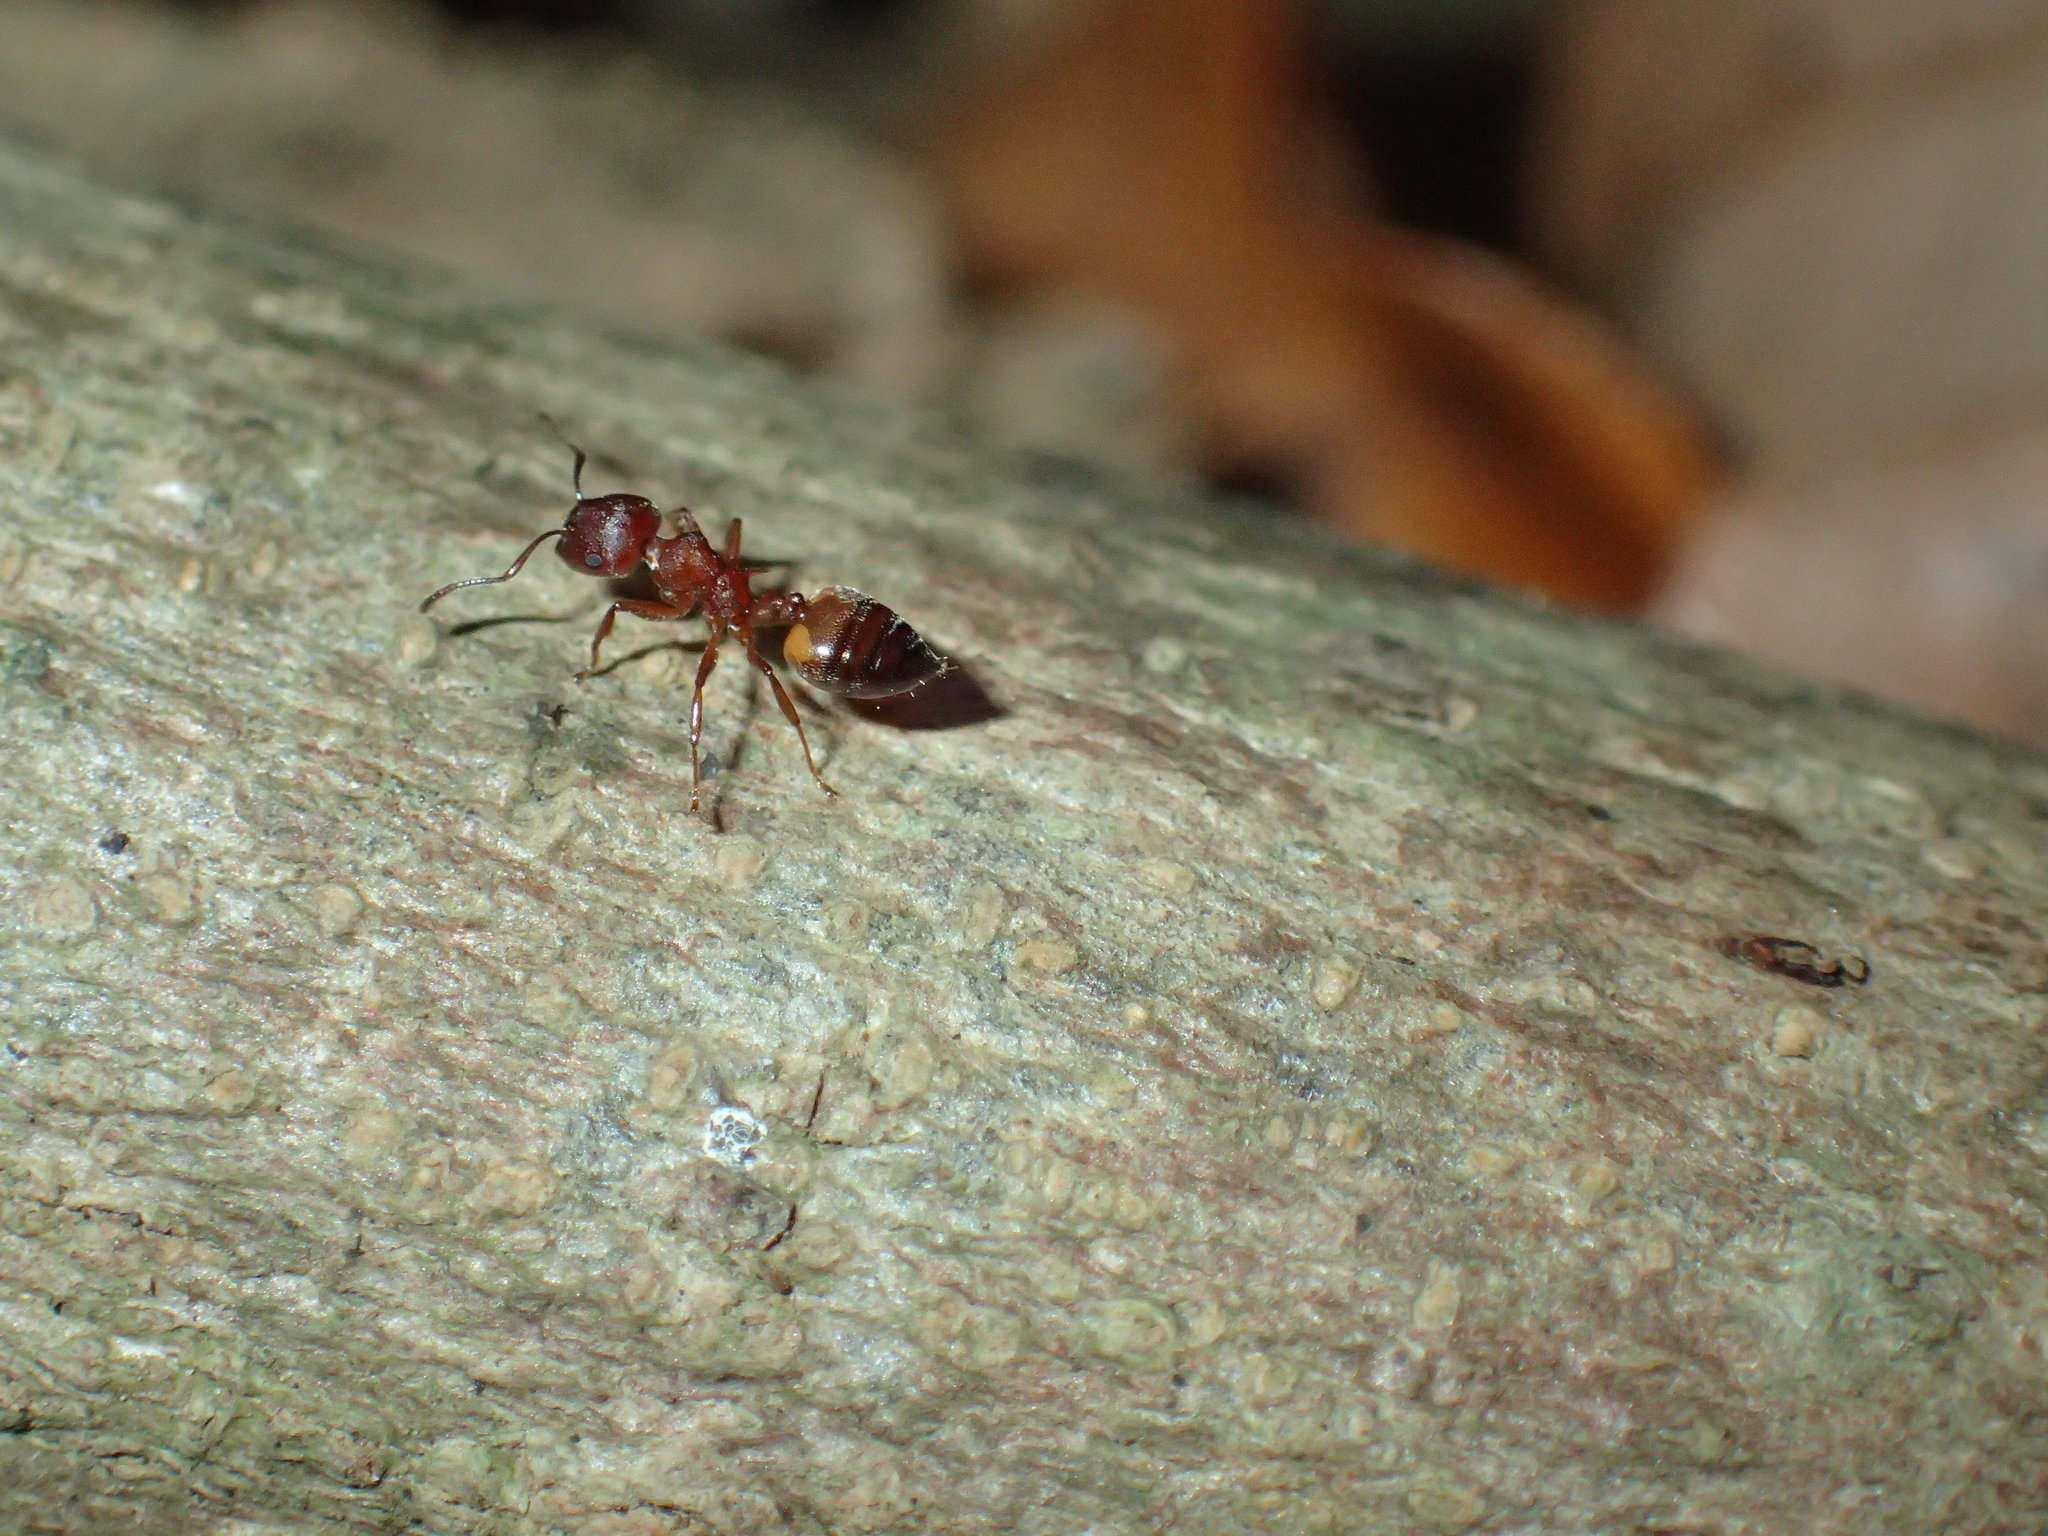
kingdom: Animalia
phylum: Arthropoda
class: Insecta
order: Hymenoptera
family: Formicidae
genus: Crematogaster
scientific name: Crematogaster castanea
